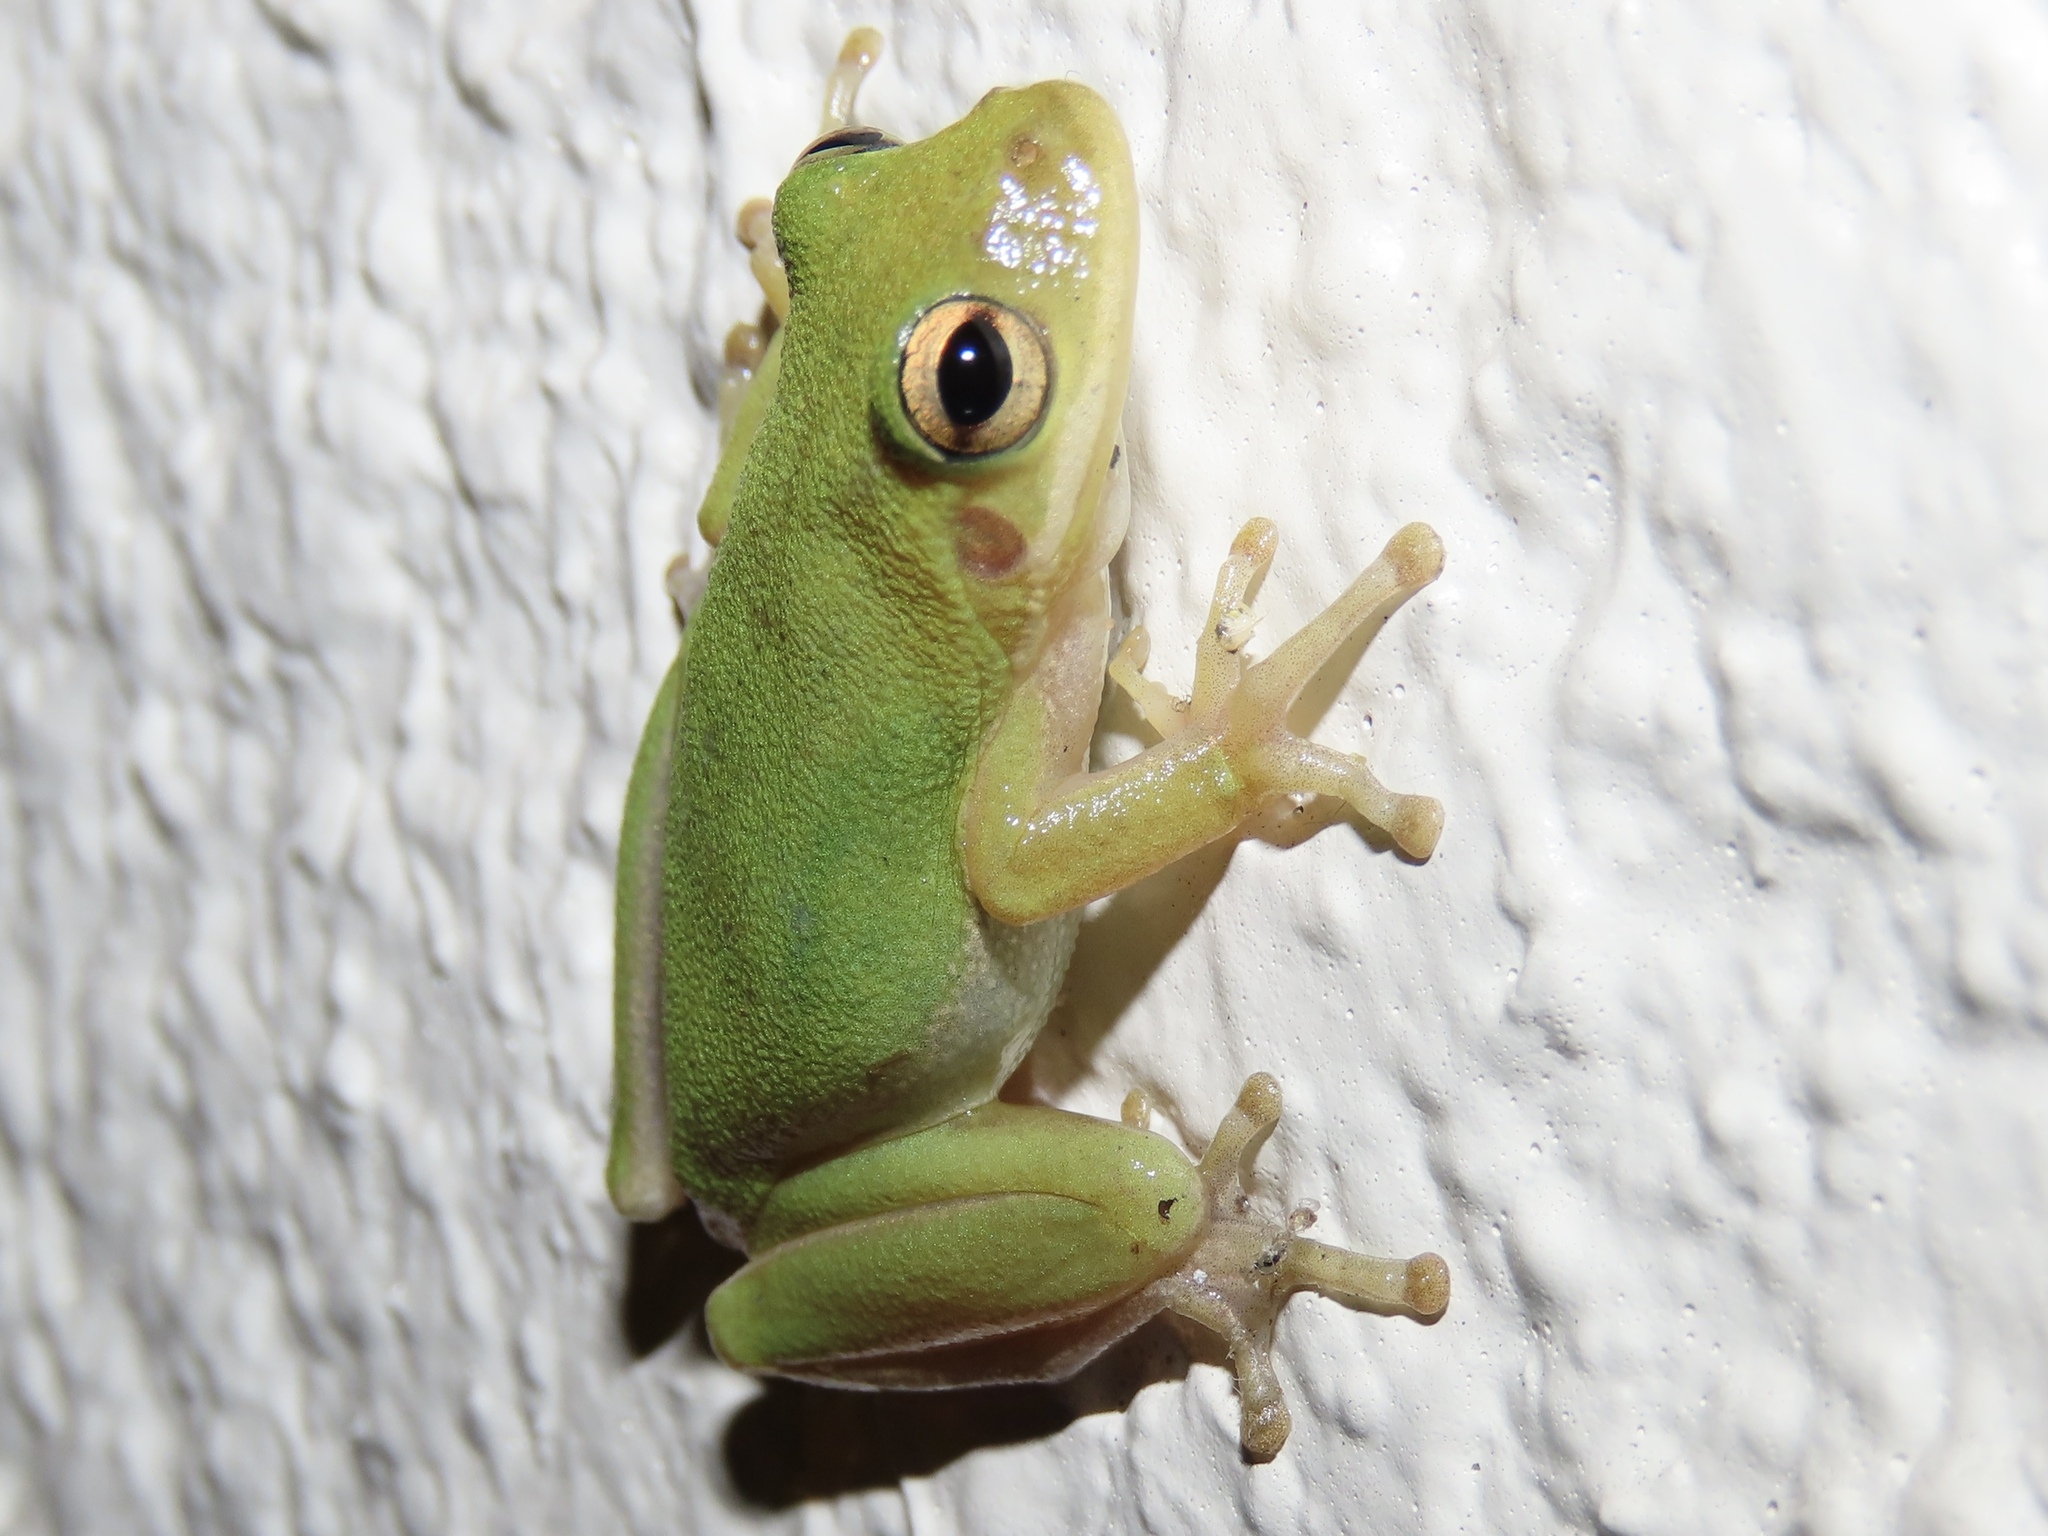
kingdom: Animalia
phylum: Chordata
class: Amphibia
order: Anura
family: Hylidae
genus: Dryophytes
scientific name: Dryophytes squirellus
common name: Squirrel treefrog
